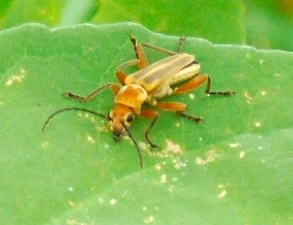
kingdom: Animalia
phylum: Arthropoda
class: Insecta
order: Coleoptera
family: Cantharidae
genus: Chauliognathus
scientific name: Chauliognathus
